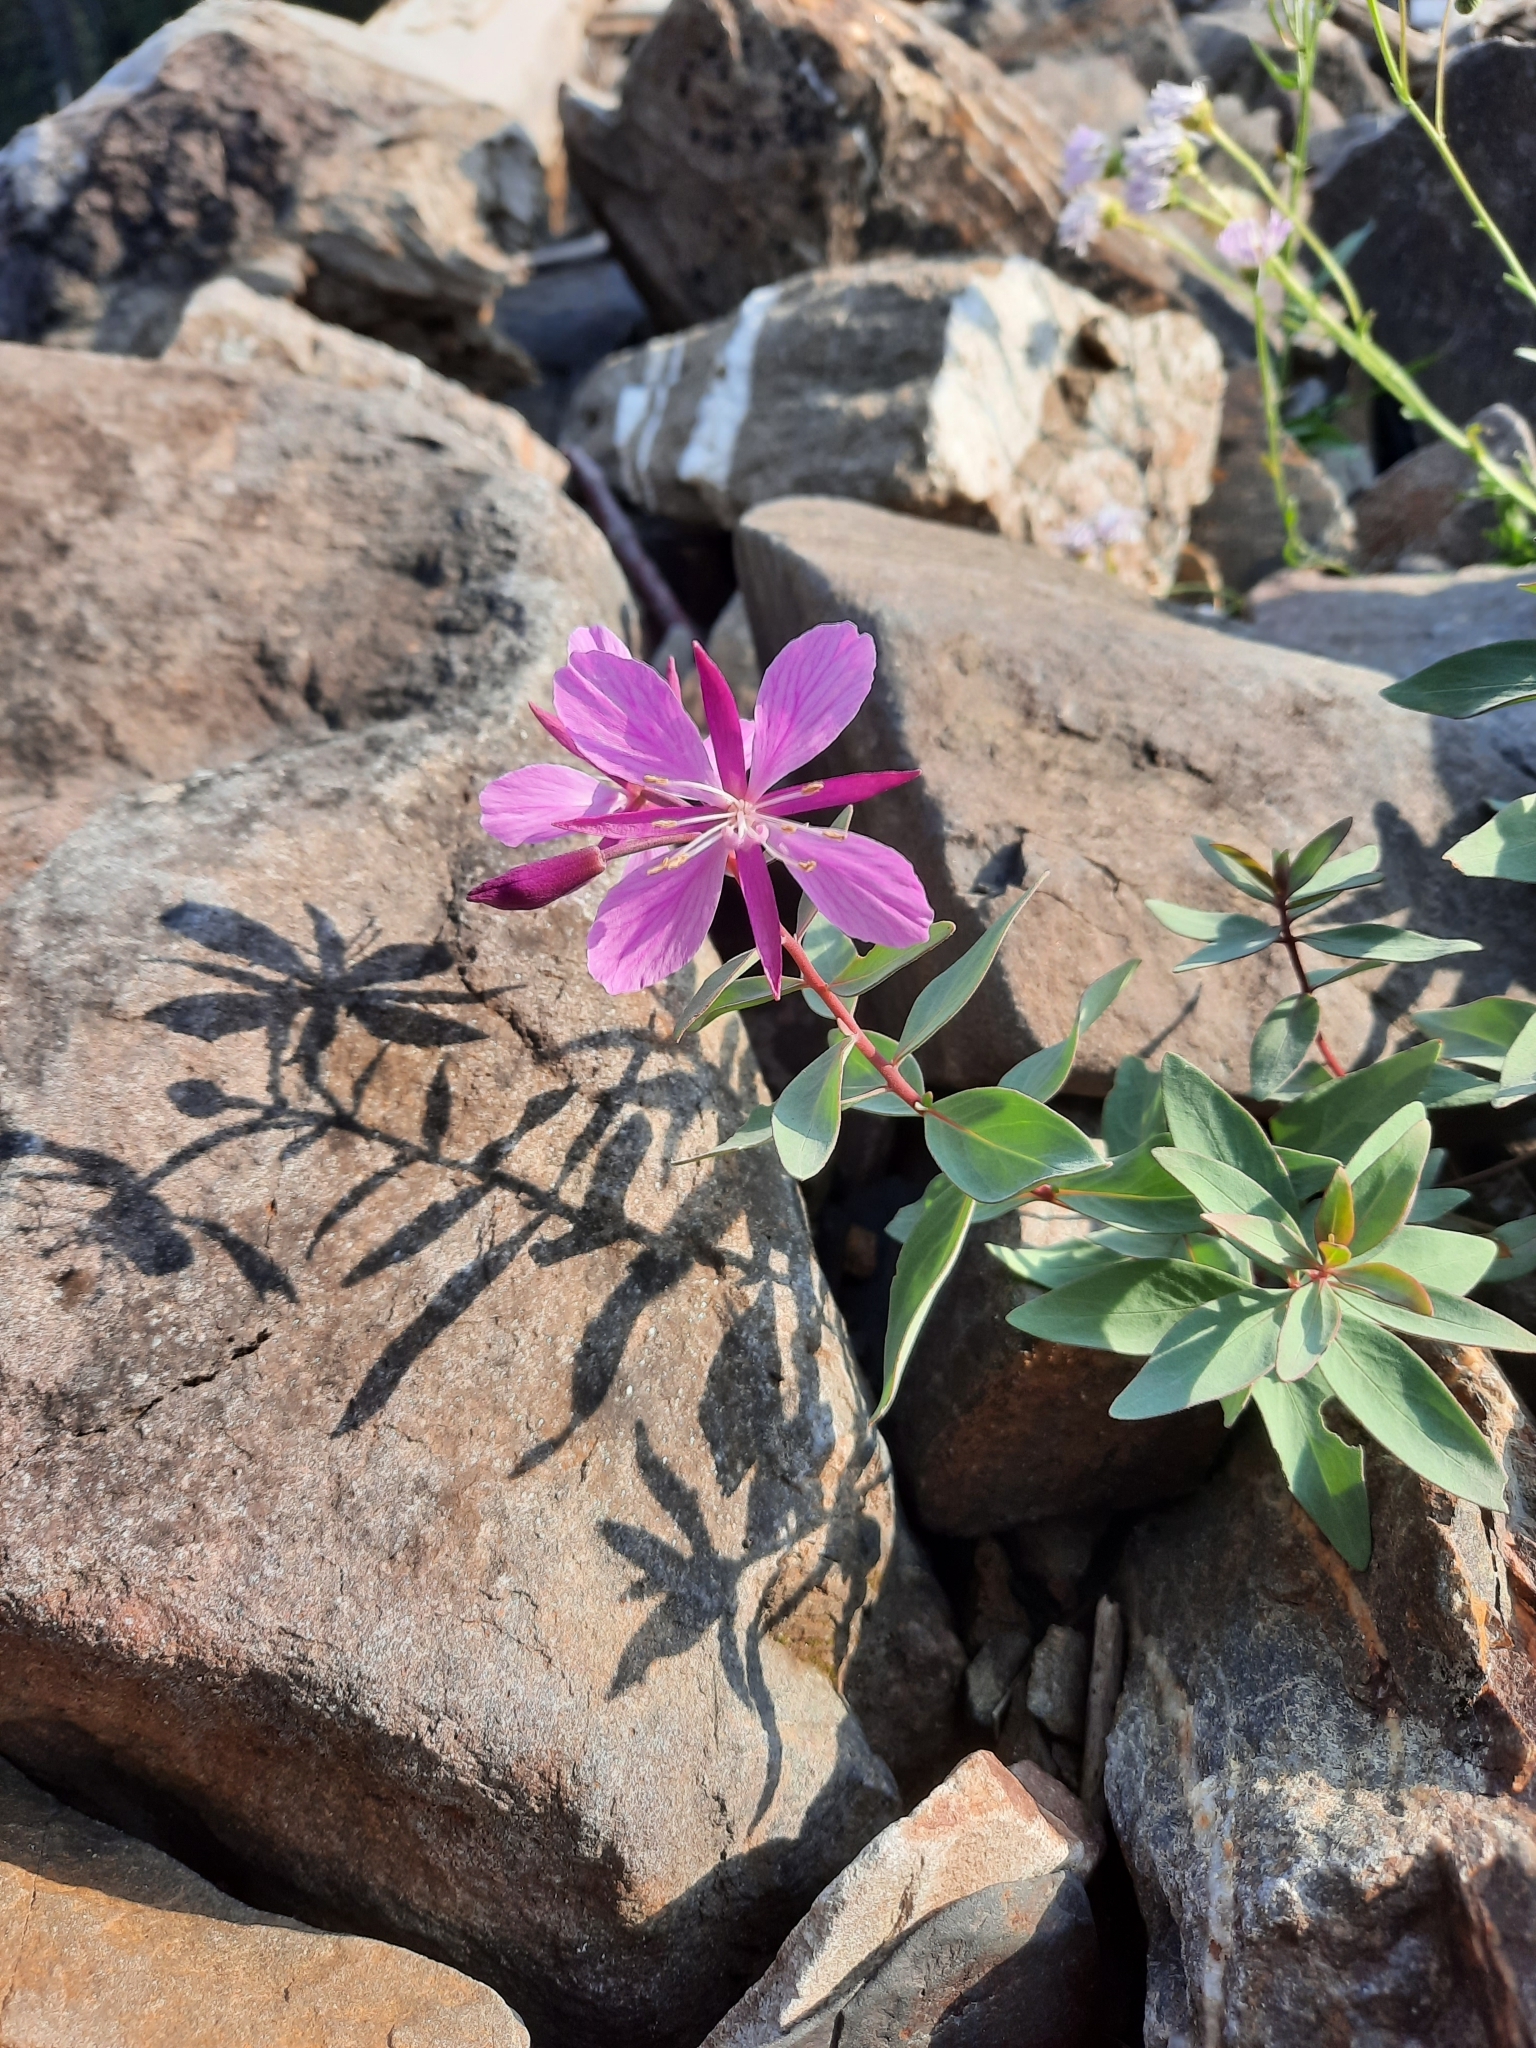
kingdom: Plantae
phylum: Tracheophyta
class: Magnoliopsida
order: Myrtales
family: Onagraceae
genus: Chamaenerion
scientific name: Chamaenerion latifolium
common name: Dwarf fireweed
